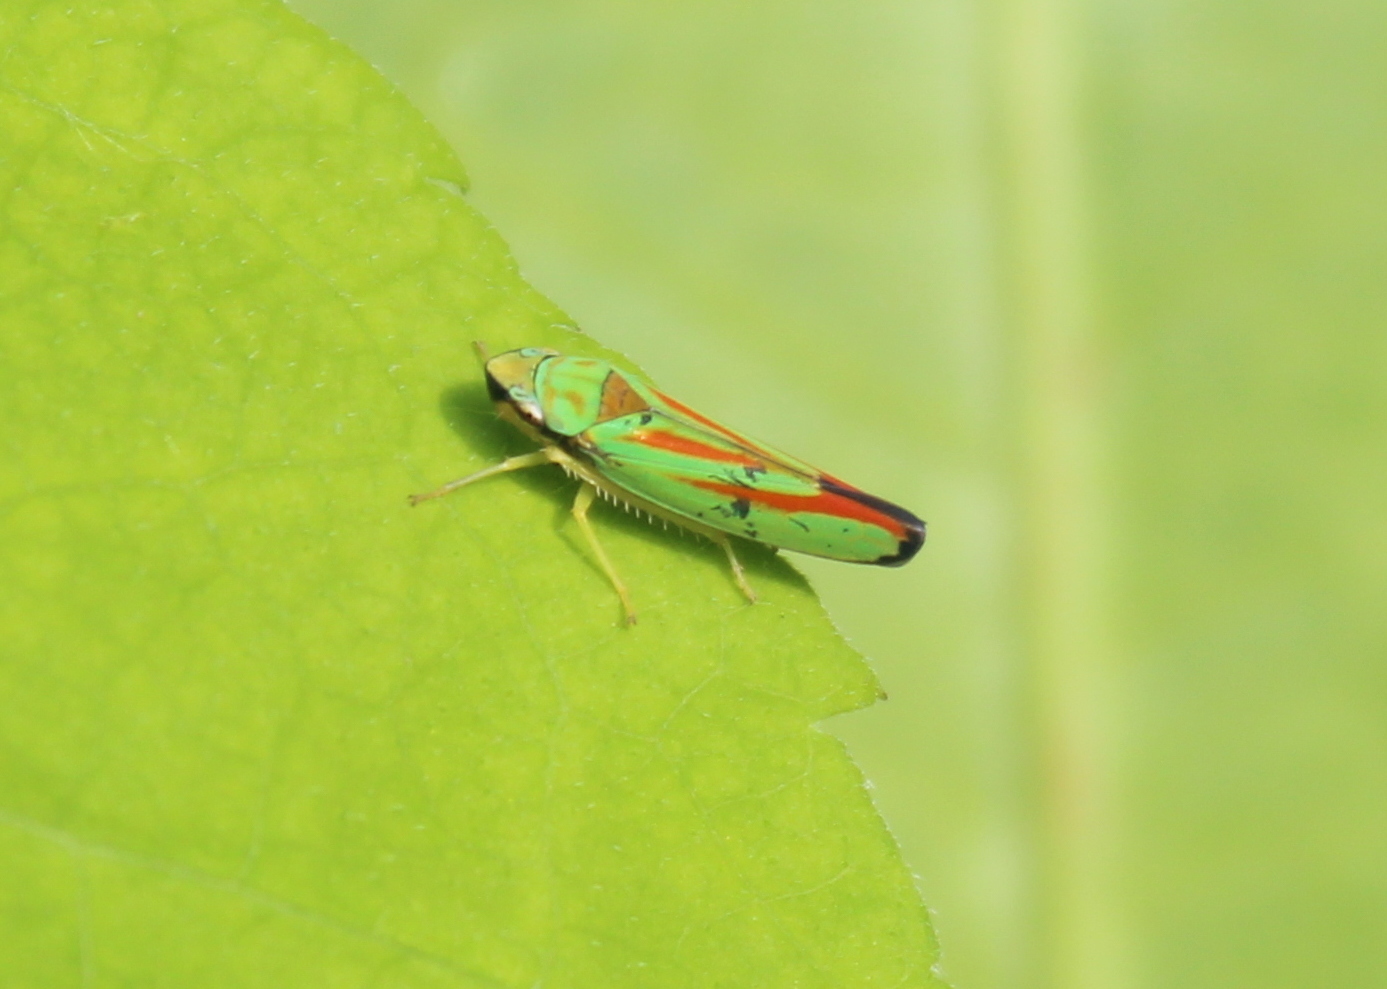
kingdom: Animalia
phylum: Arthropoda
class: Insecta
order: Hemiptera
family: Cicadellidae
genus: Graphocephala
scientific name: Graphocephala fennahi
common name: Rhododendron leafhopper
